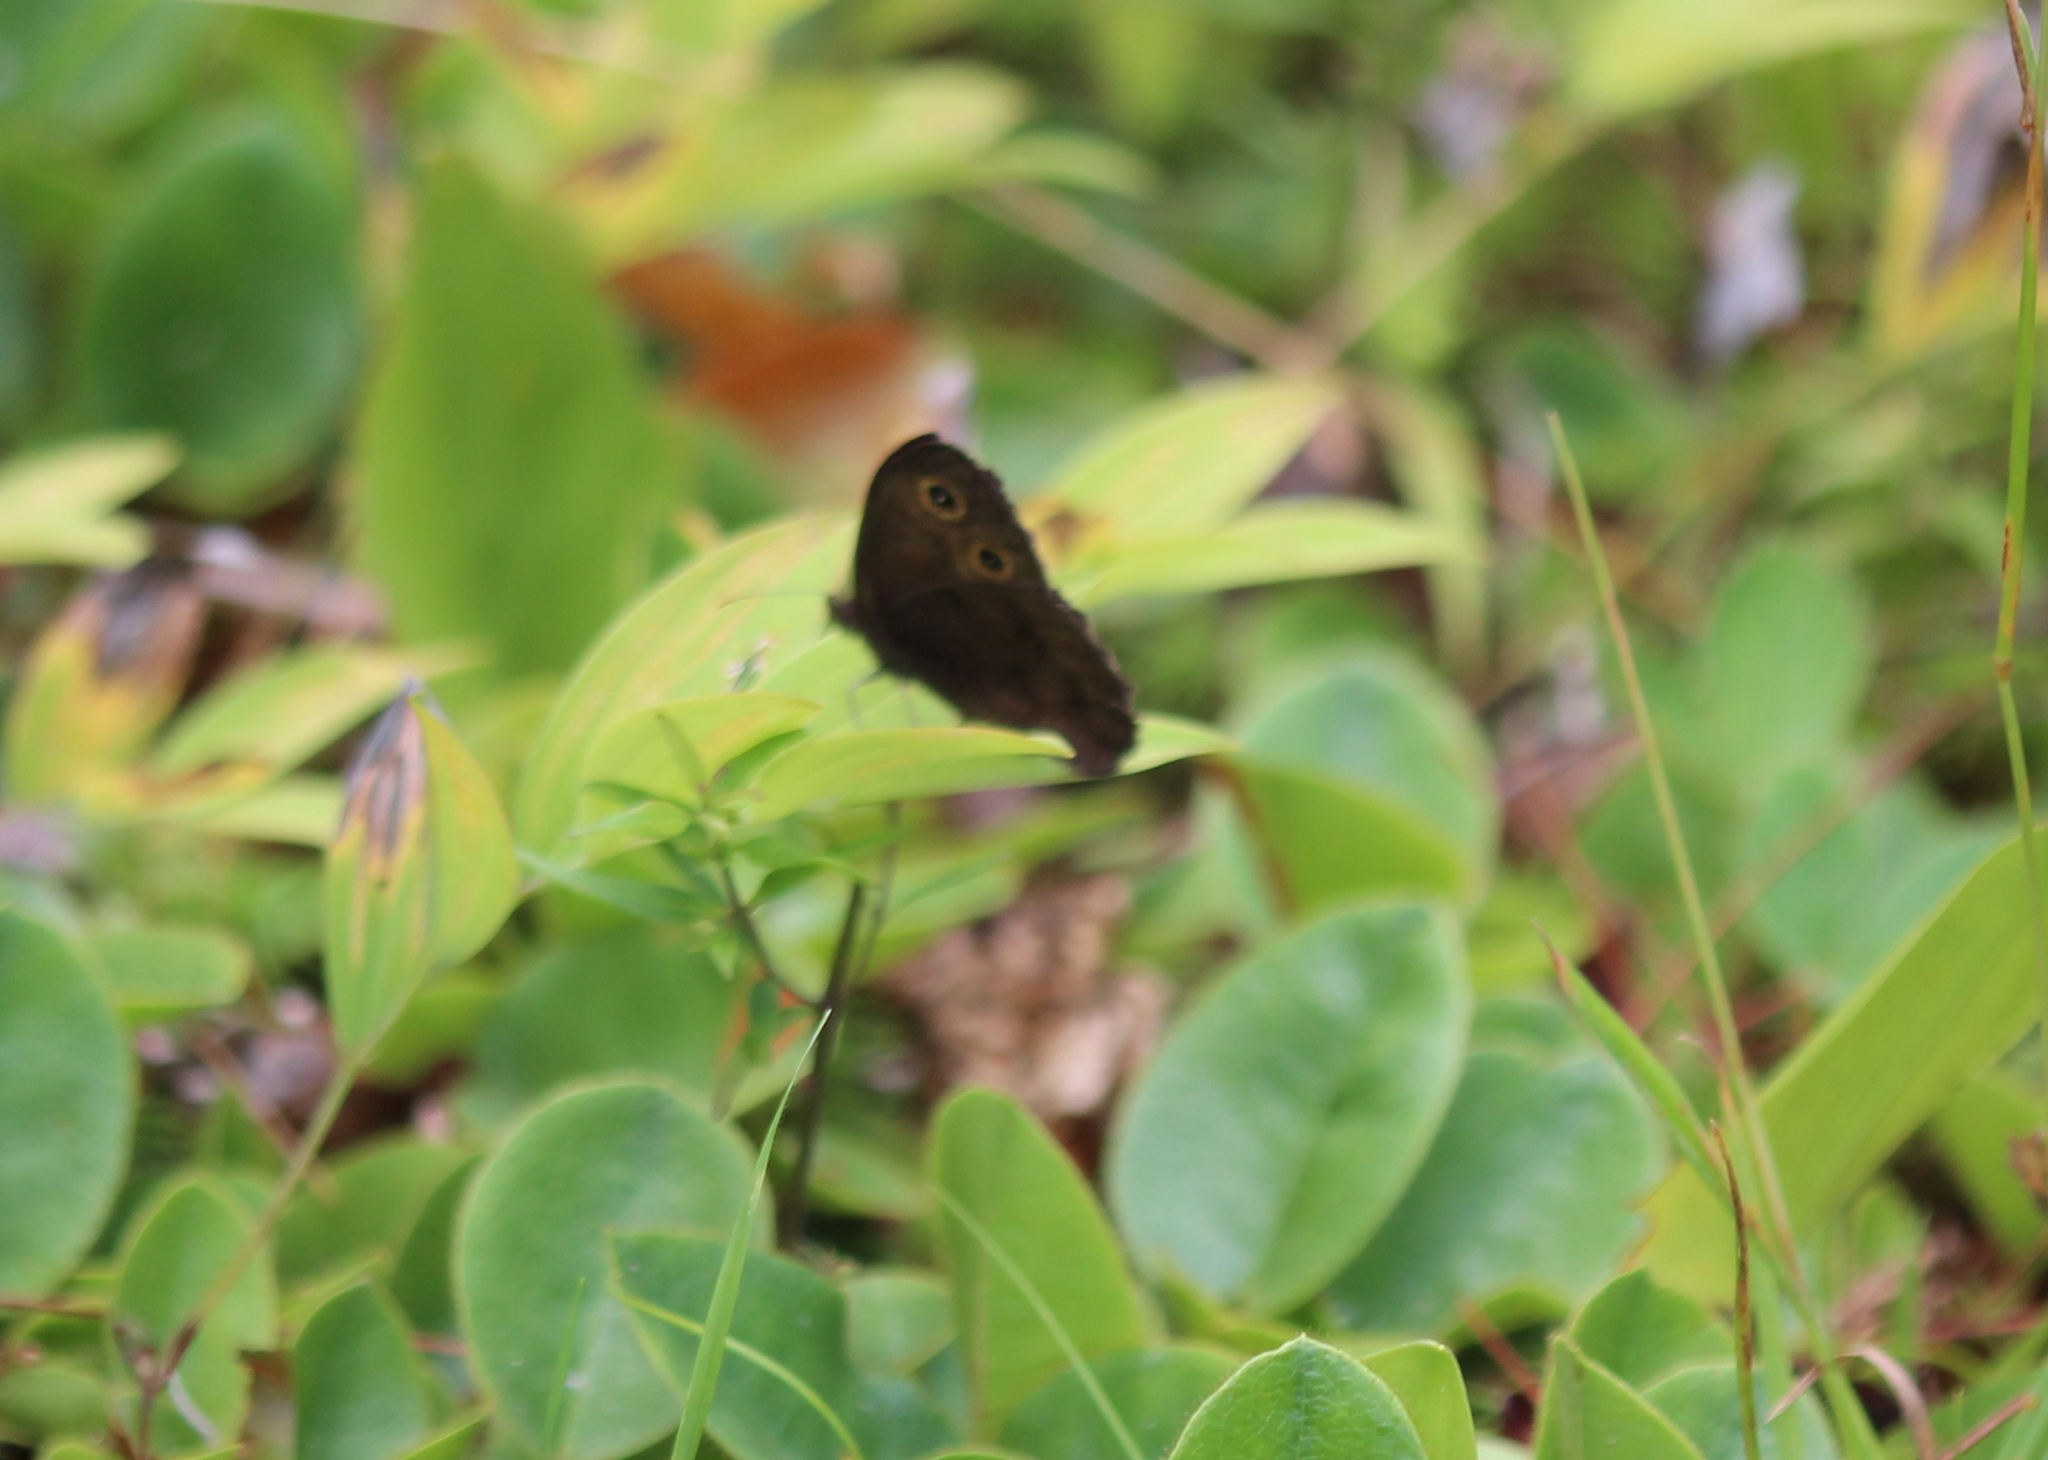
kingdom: Animalia
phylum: Arthropoda
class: Insecta
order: Lepidoptera
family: Nymphalidae
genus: Cercyonis
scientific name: Cercyonis pegala
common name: Common wood-nymph
